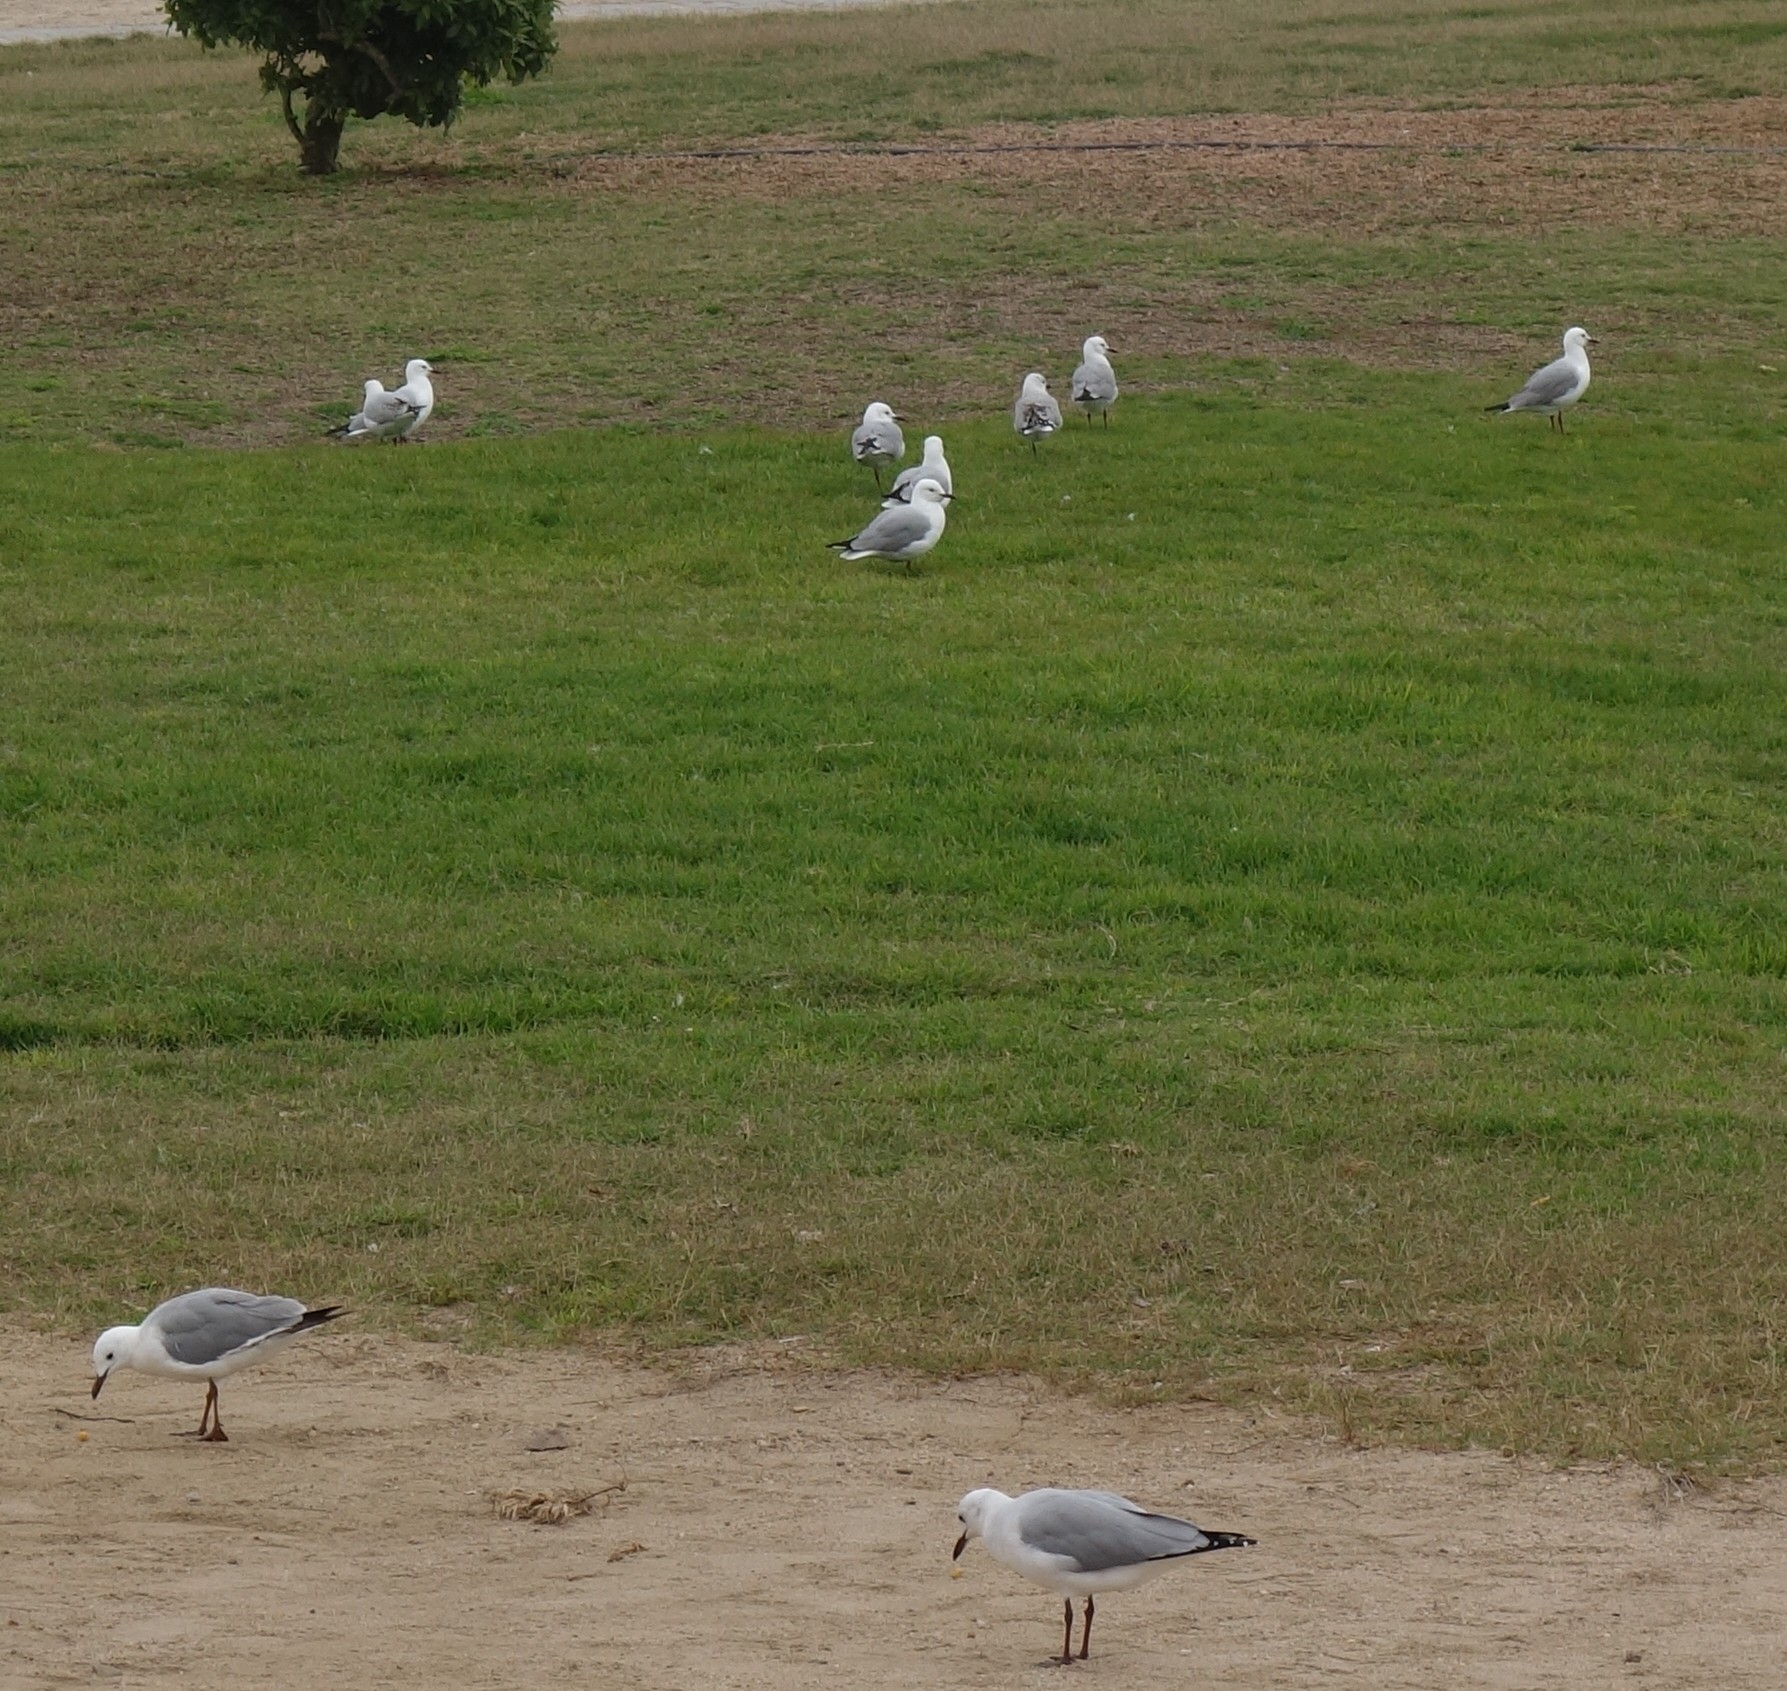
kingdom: Animalia
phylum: Chordata
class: Aves
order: Charadriiformes
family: Laridae
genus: Chroicocephalus
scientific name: Chroicocephalus hartlaubii
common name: Hartlaub's gull
